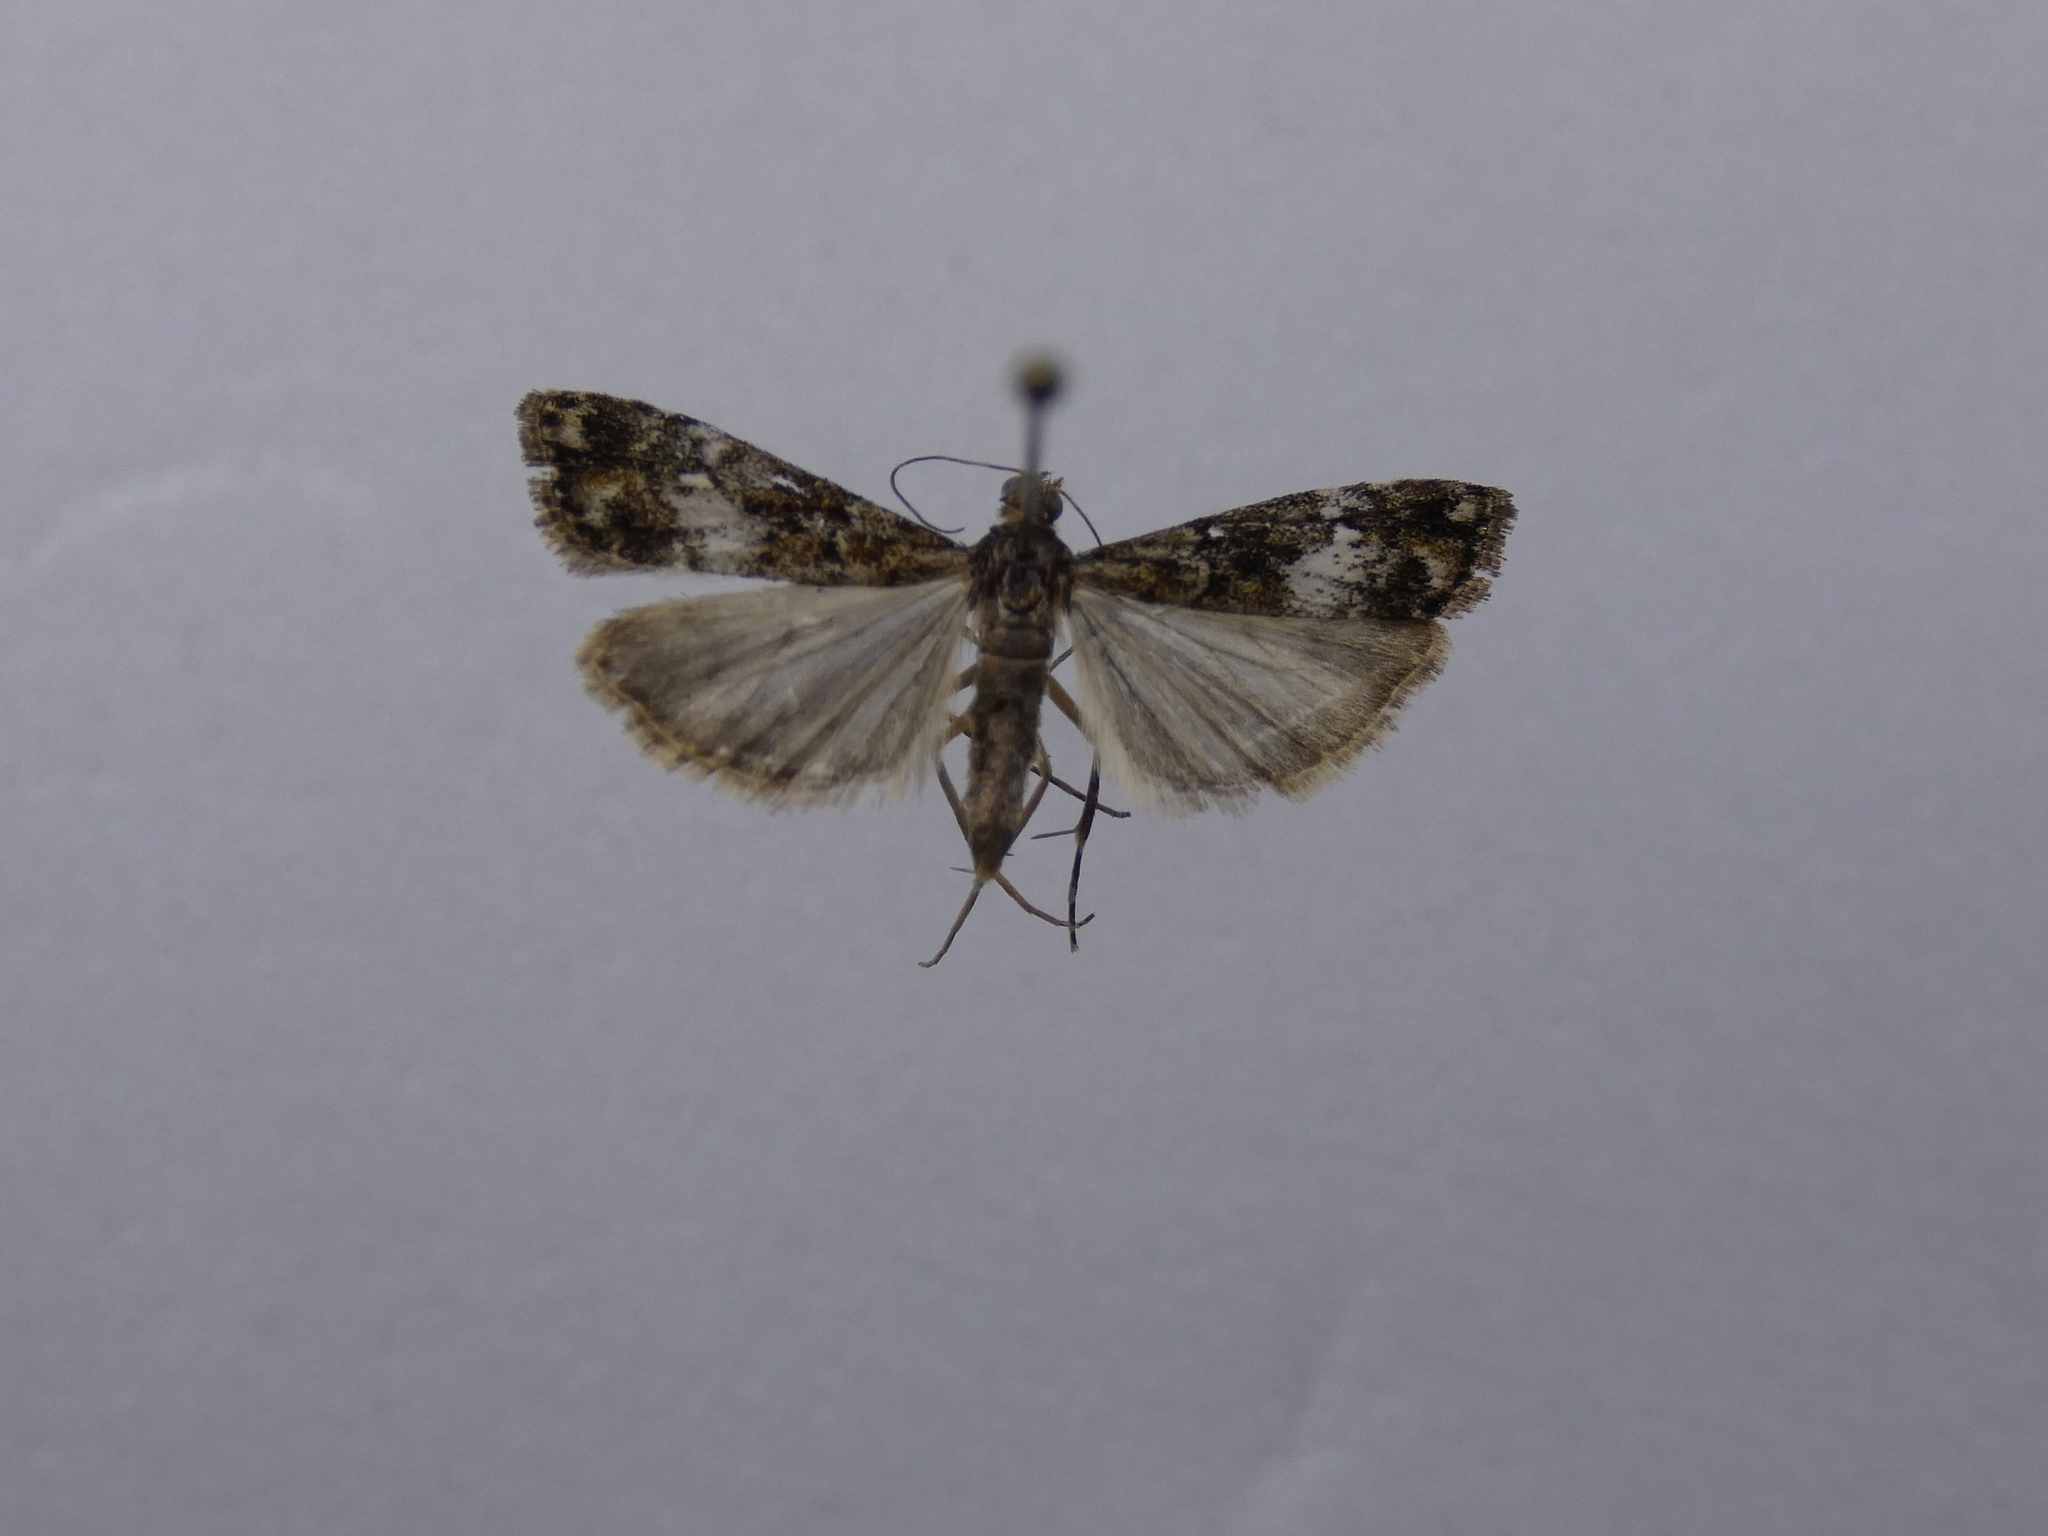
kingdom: Animalia
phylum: Arthropoda
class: Insecta
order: Lepidoptera
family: Crambidae
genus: Eudonia
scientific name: Eudonia minualis
